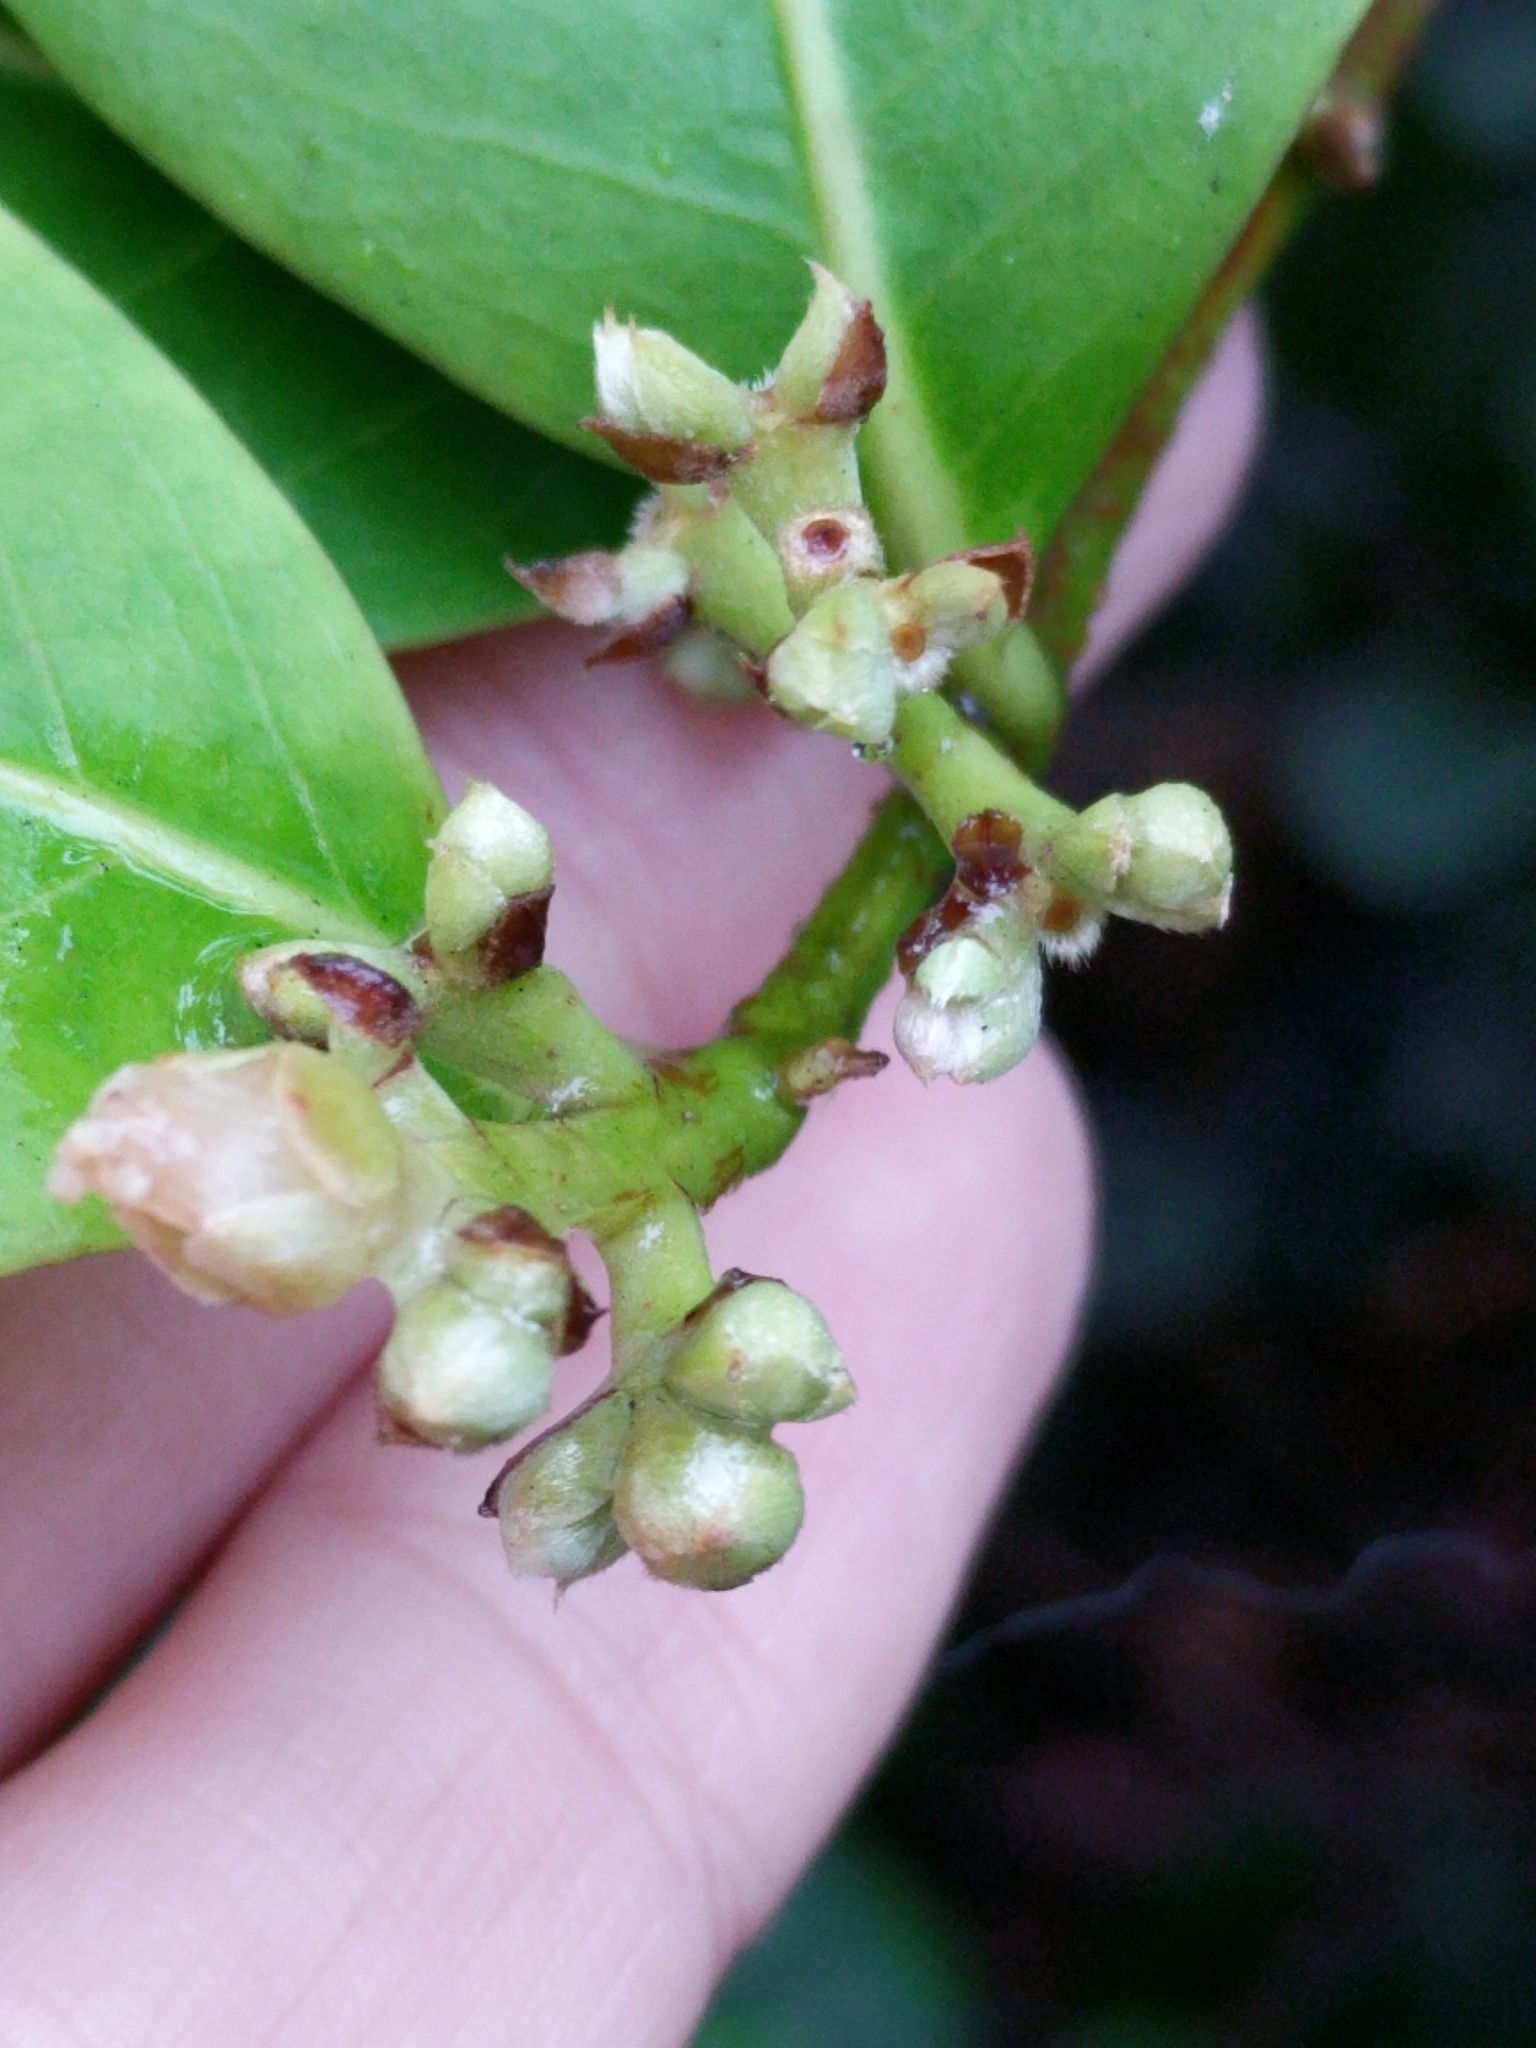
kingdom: Plantae
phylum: Tracheophyta
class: Magnoliopsida
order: Malpighiales
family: Chrysobalanaceae
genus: Chrysobalanus
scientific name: Chrysobalanus icaco
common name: Coco plum
